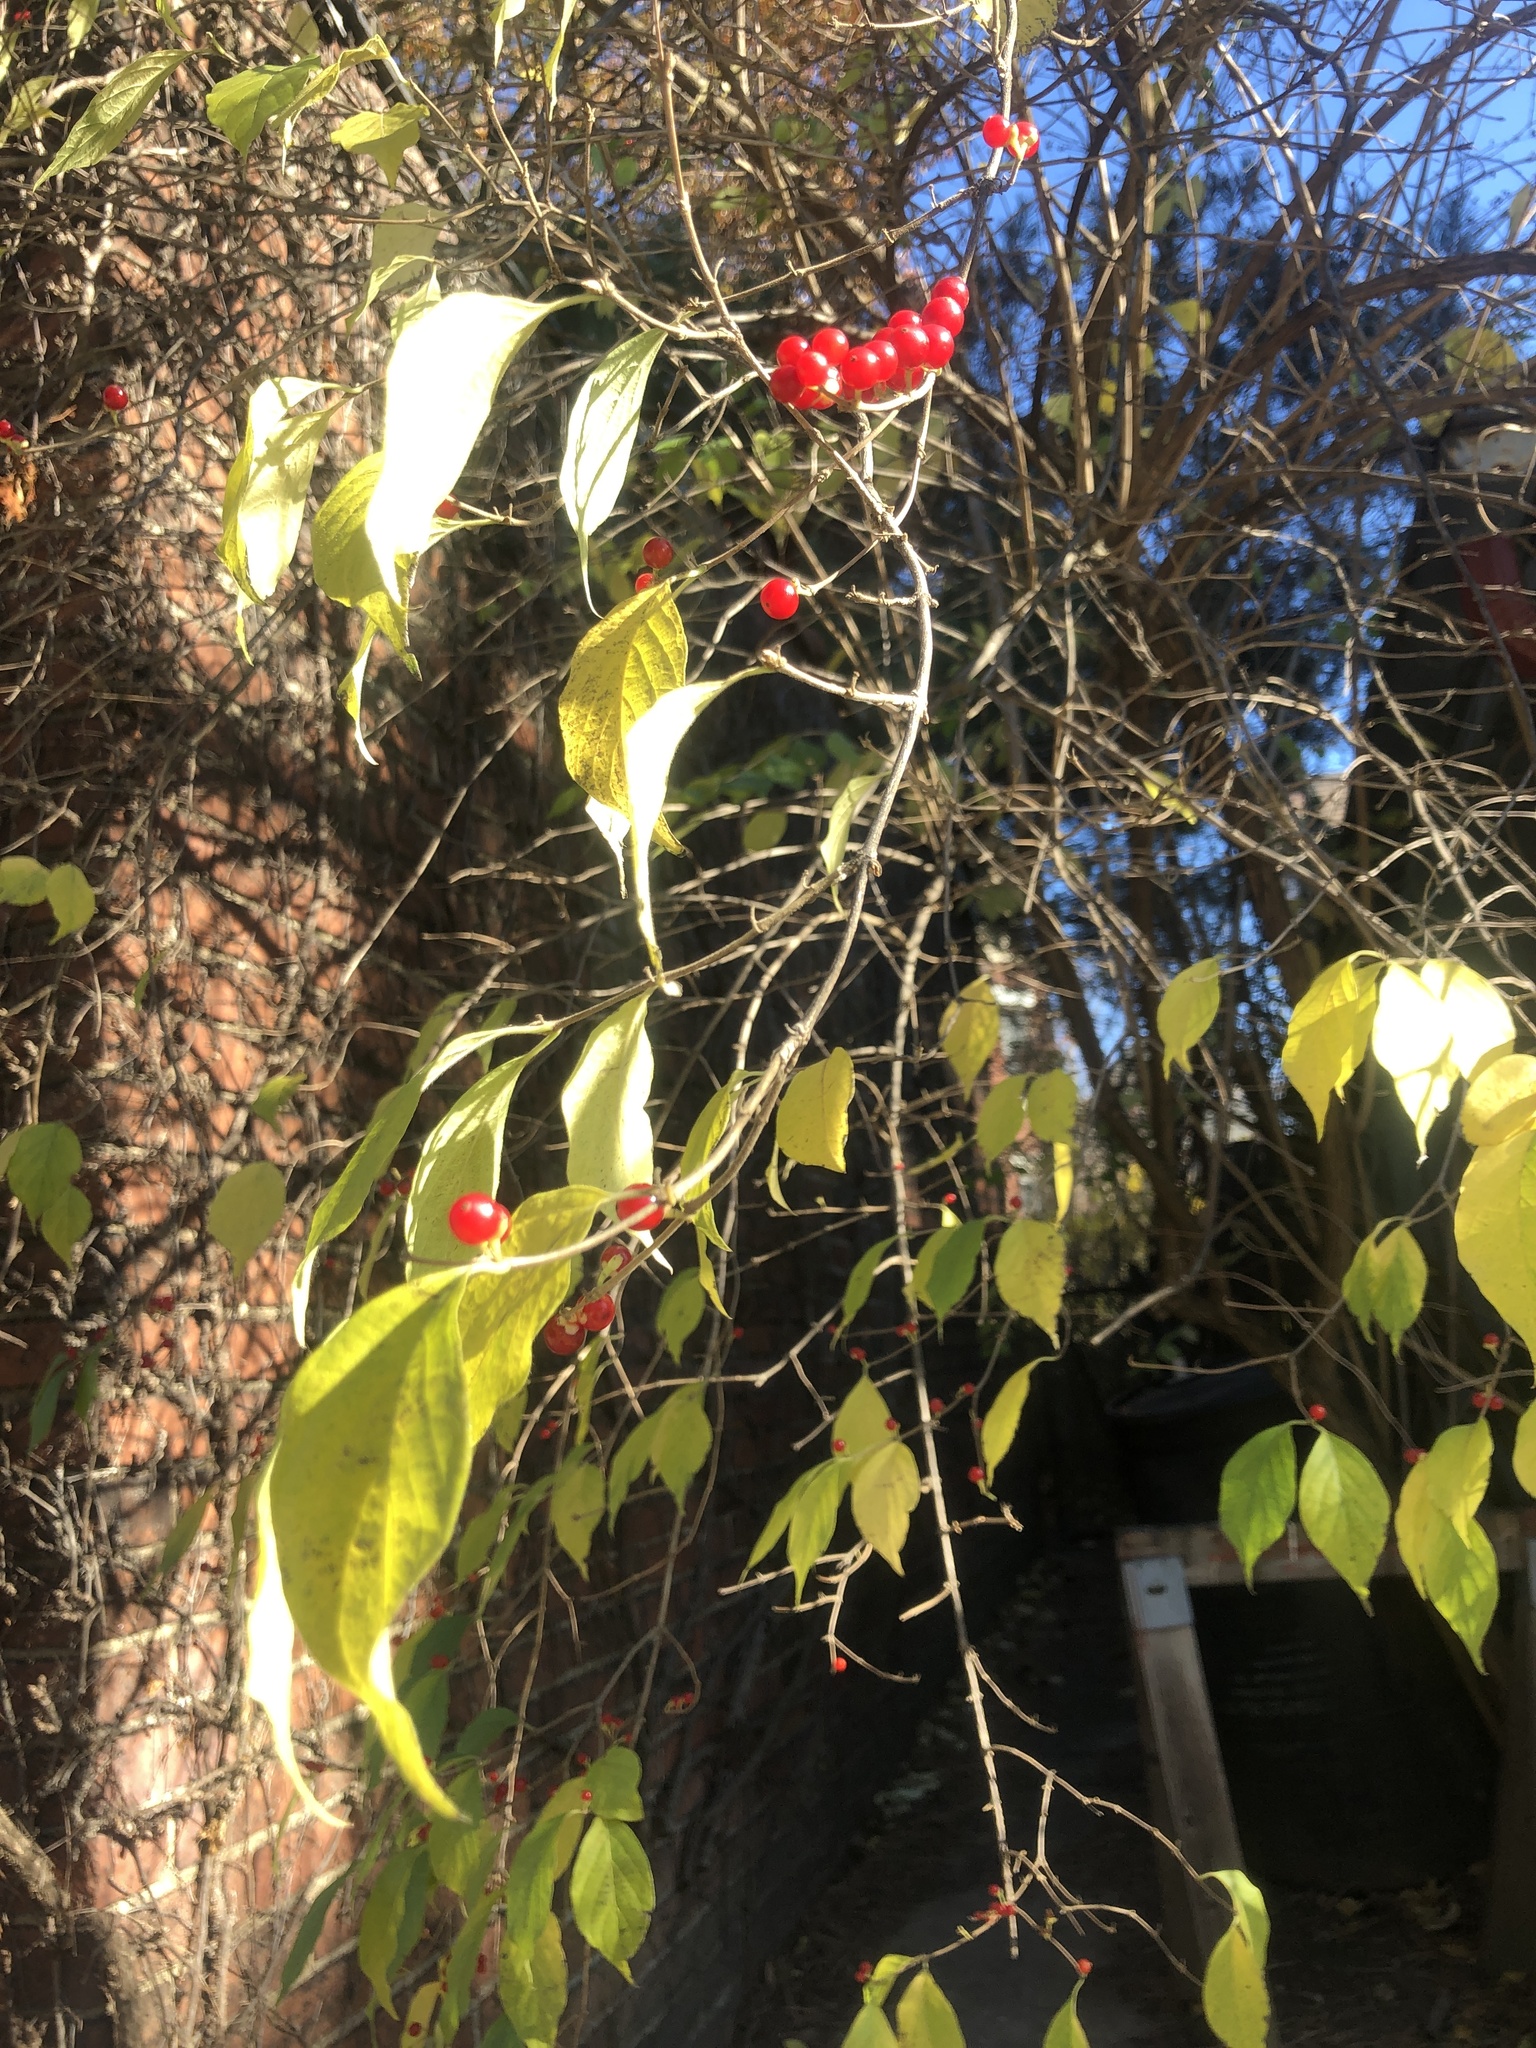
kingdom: Plantae
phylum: Tracheophyta
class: Magnoliopsida
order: Dipsacales
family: Caprifoliaceae
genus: Lonicera
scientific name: Lonicera maackii
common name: Amur honeysuckle
